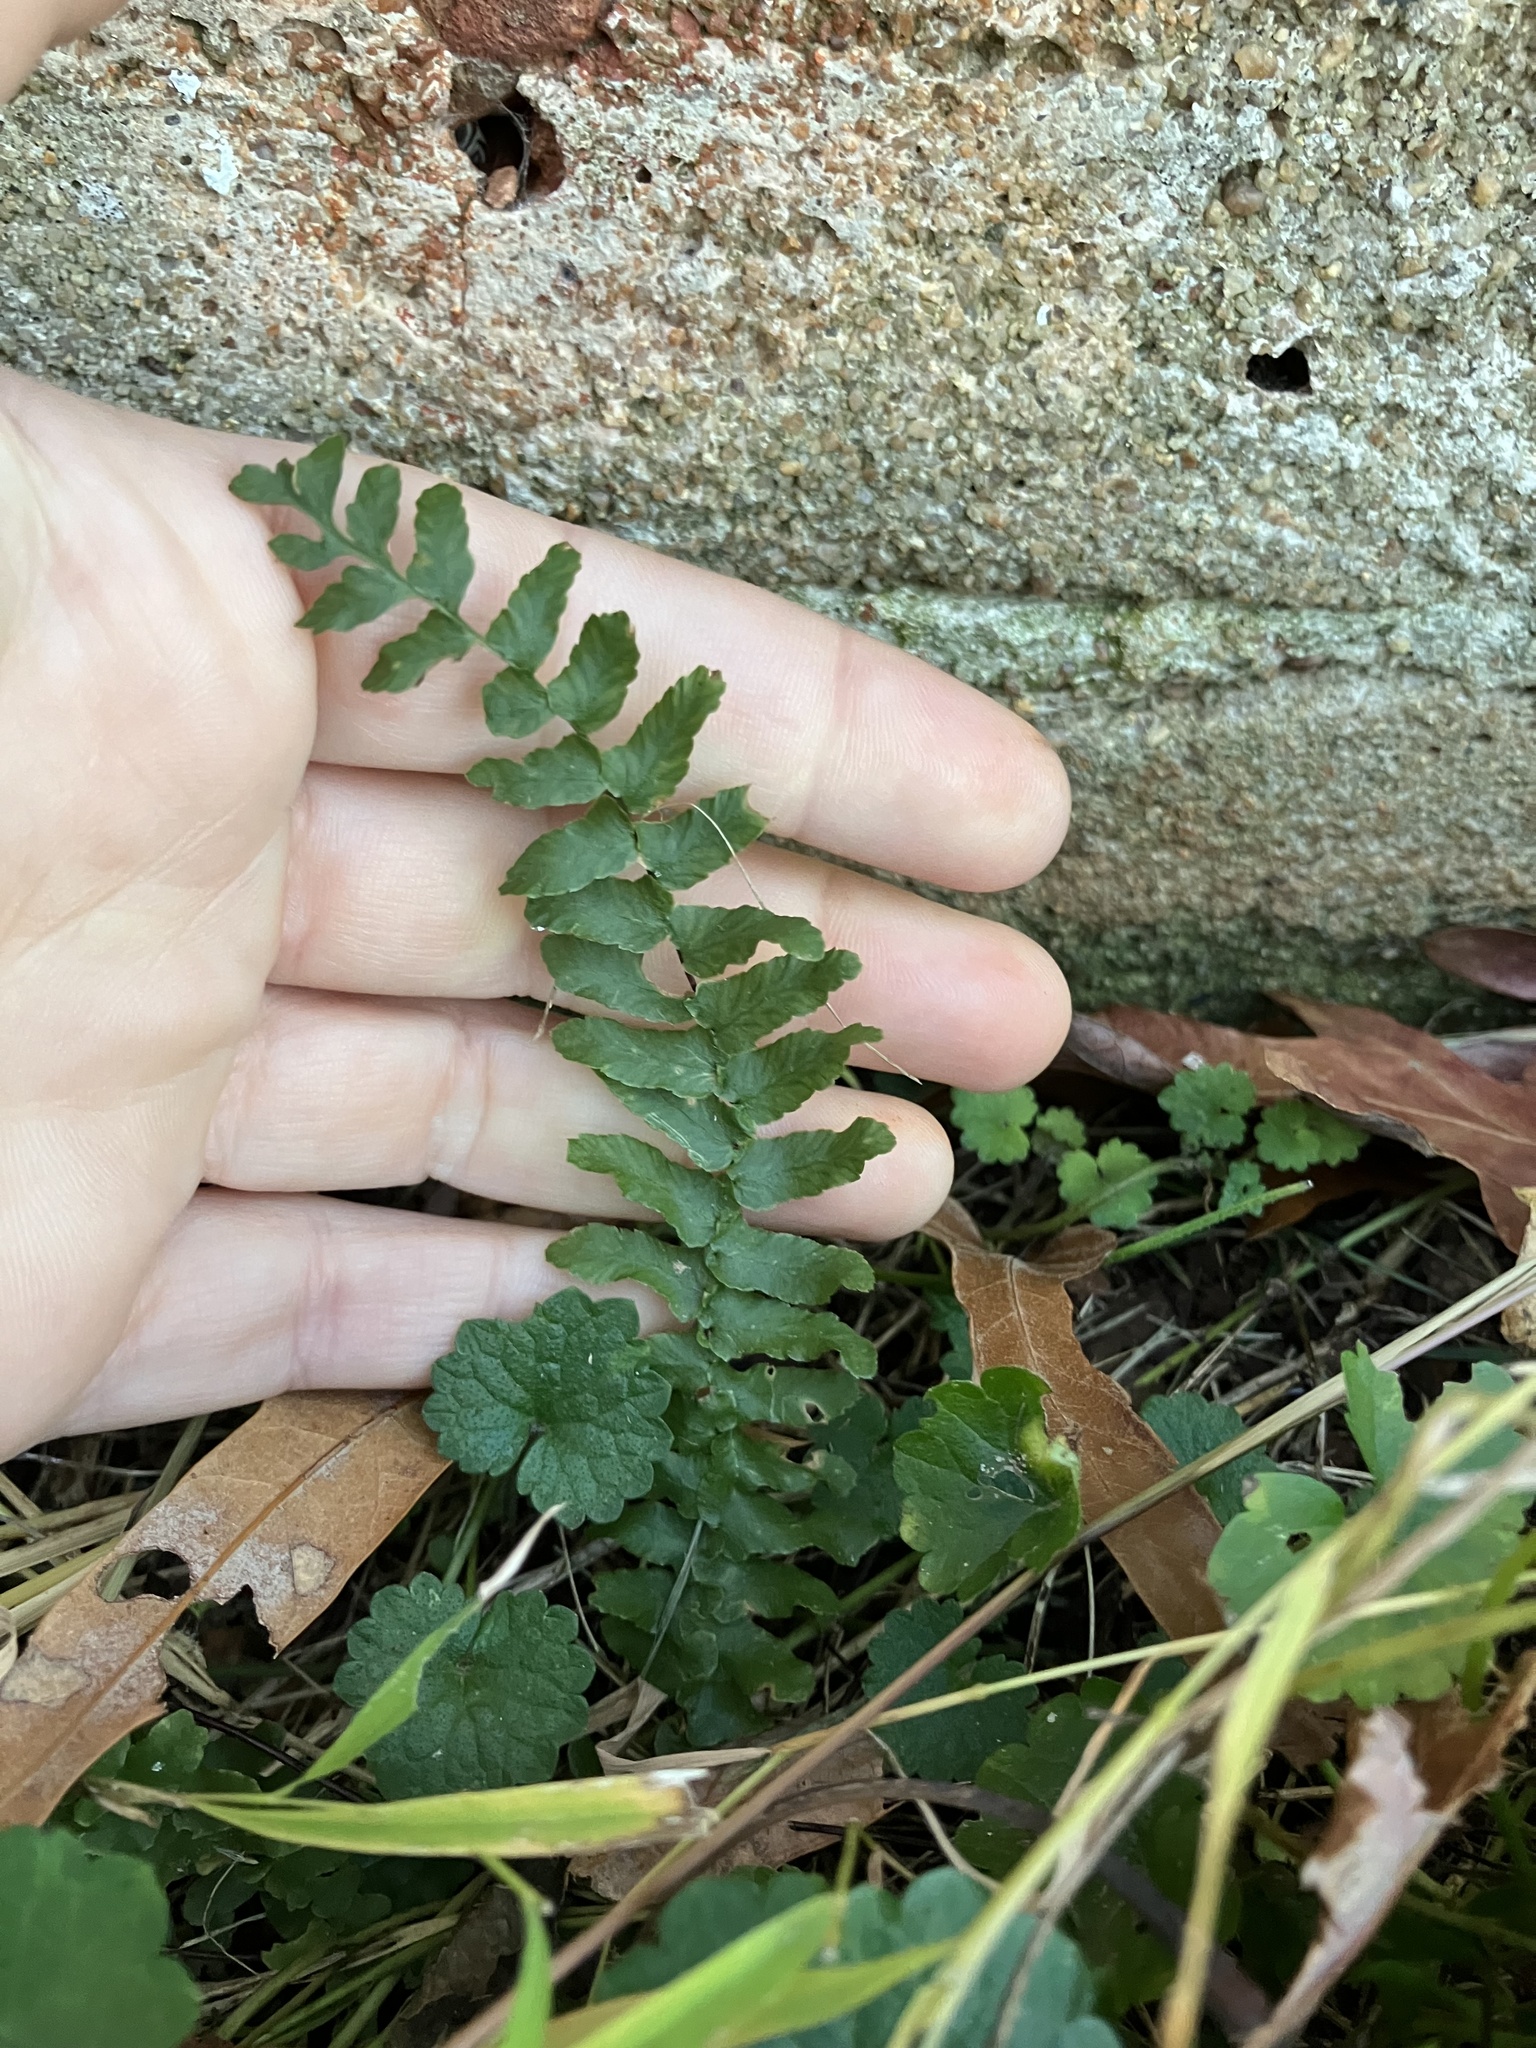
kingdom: Plantae
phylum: Tracheophyta
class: Polypodiopsida
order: Polypodiales
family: Aspleniaceae
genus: Asplenium
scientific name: Asplenium platyneuron
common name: Ebony spleenwort
